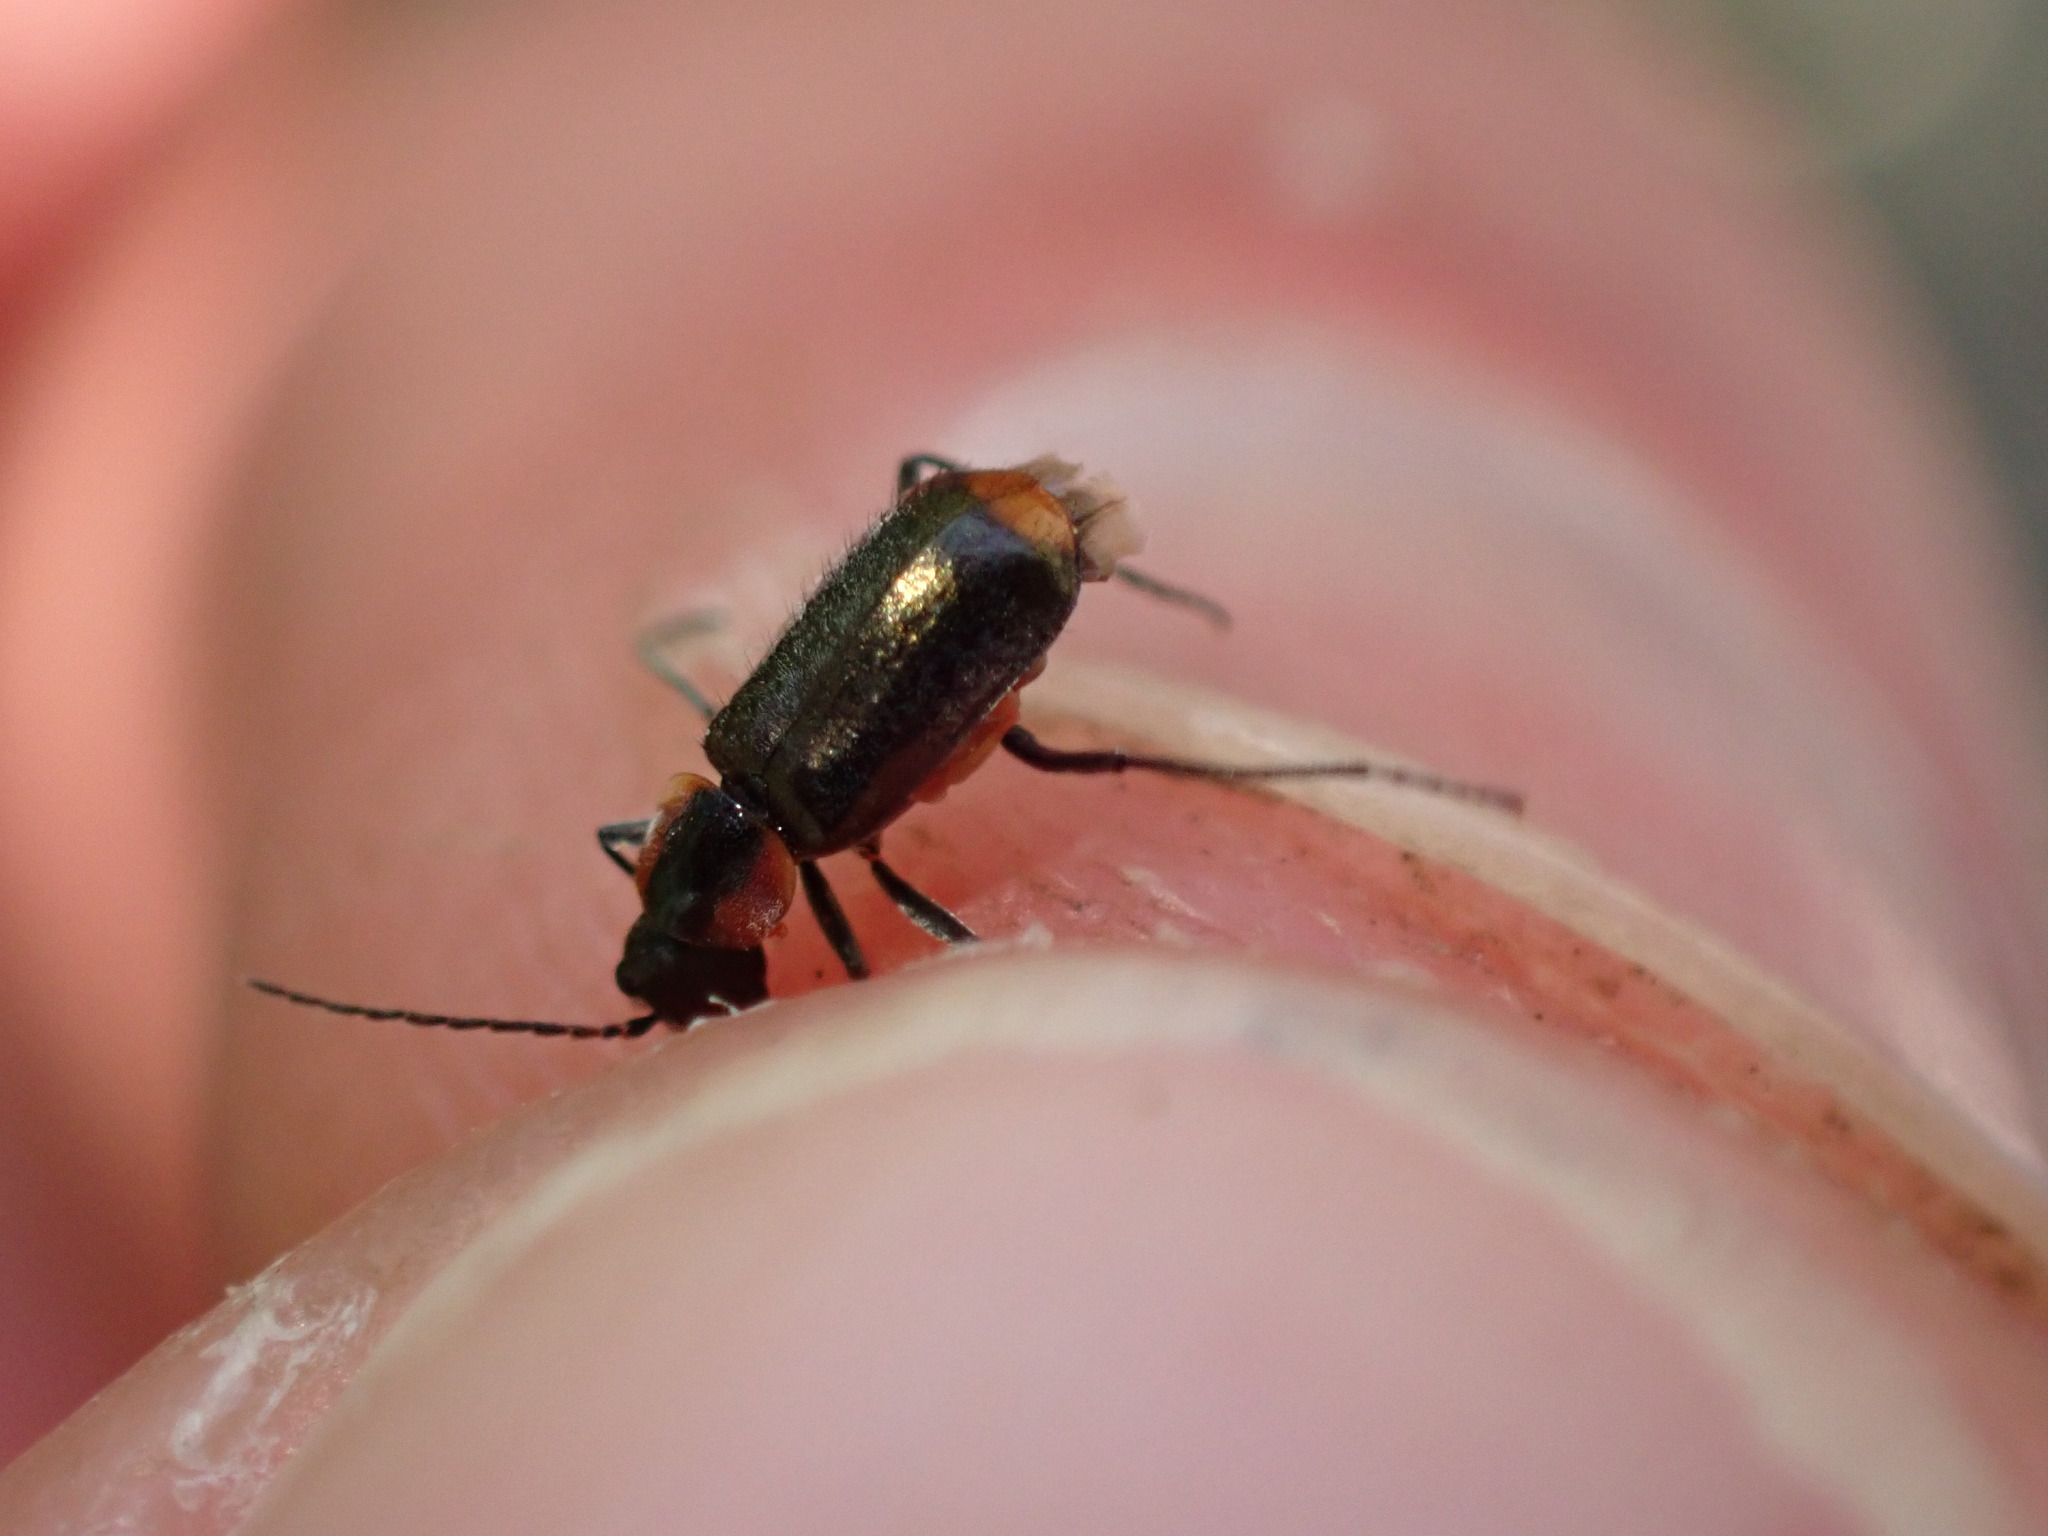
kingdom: Animalia
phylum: Arthropoda
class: Insecta
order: Coleoptera
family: Melyridae
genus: Axinotarsus
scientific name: Axinotarsus pulicarius
